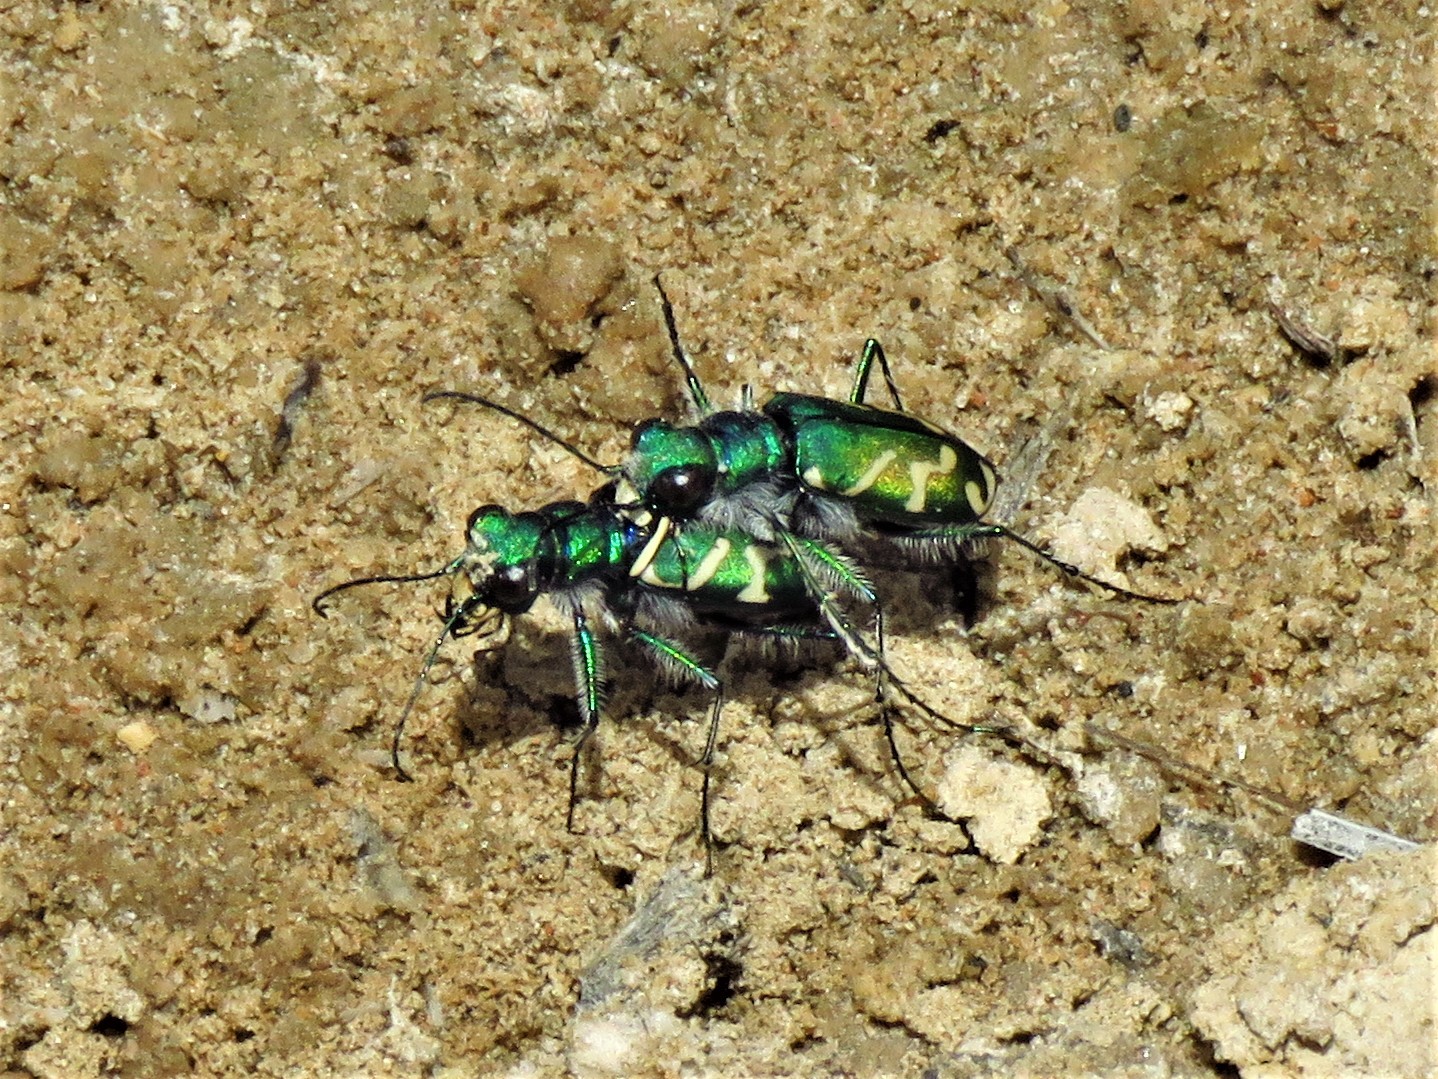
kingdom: Animalia
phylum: Arthropoda
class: Insecta
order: Coleoptera
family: Carabidae
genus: Cicindela
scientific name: Cicindela tranquebarica
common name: Oblique-lined tiger beetle
